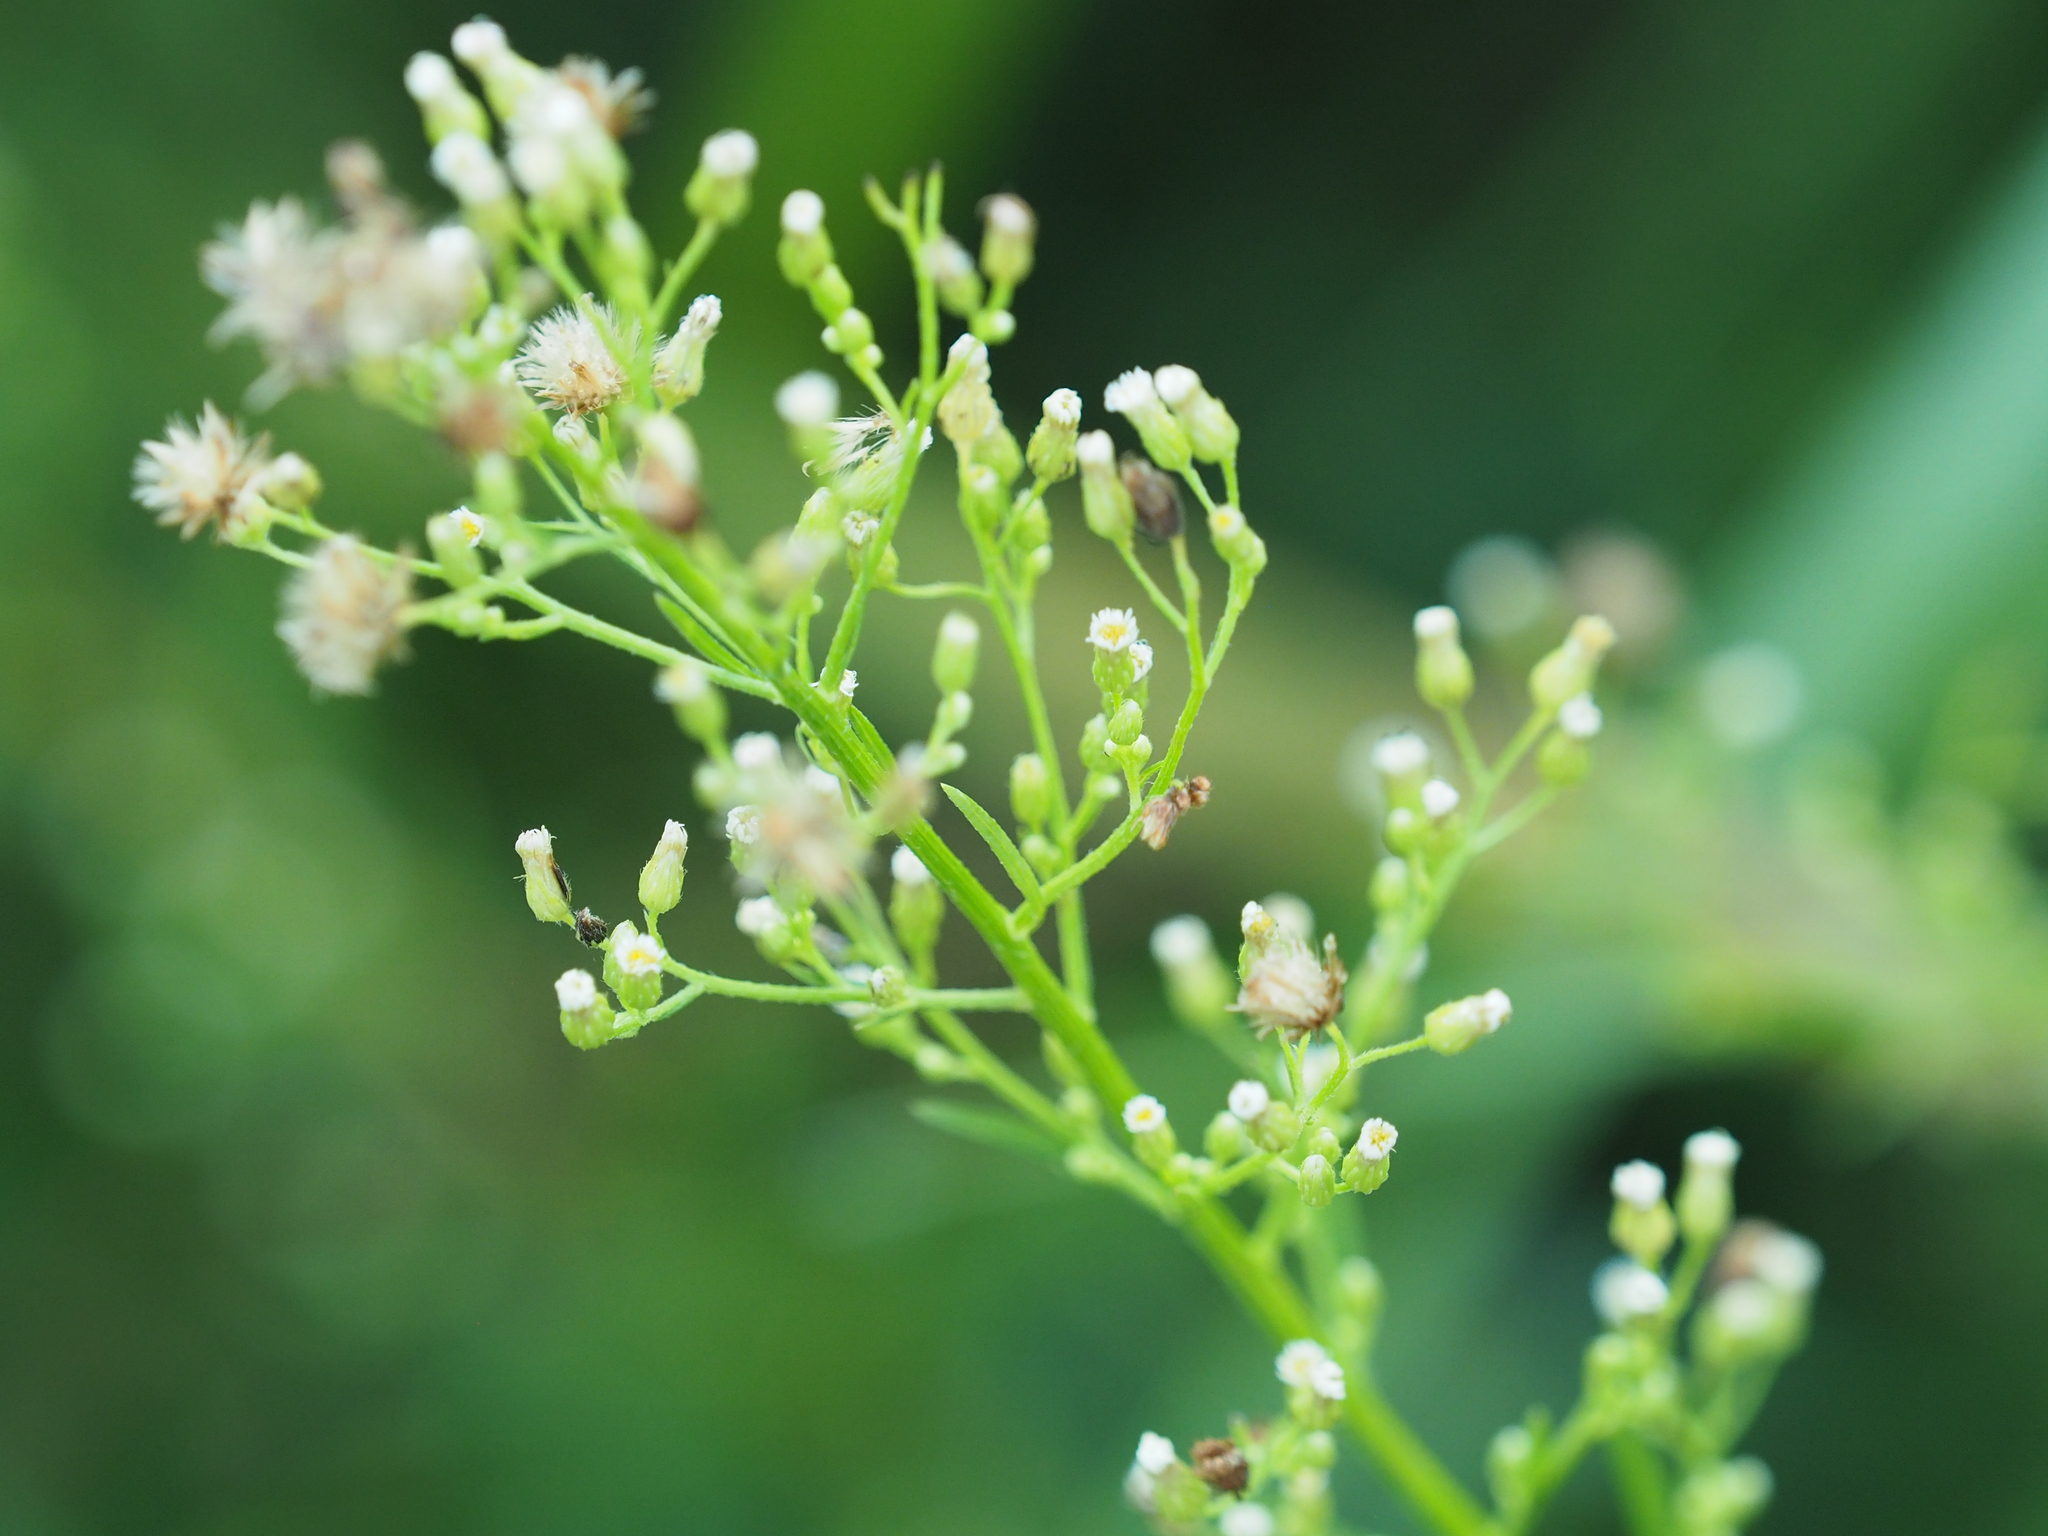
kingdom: Plantae
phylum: Tracheophyta
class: Magnoliopsida
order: Asterales
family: Asteraceae
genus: Erigeron
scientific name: Erigeron canadensis
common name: Canadian fleabane
